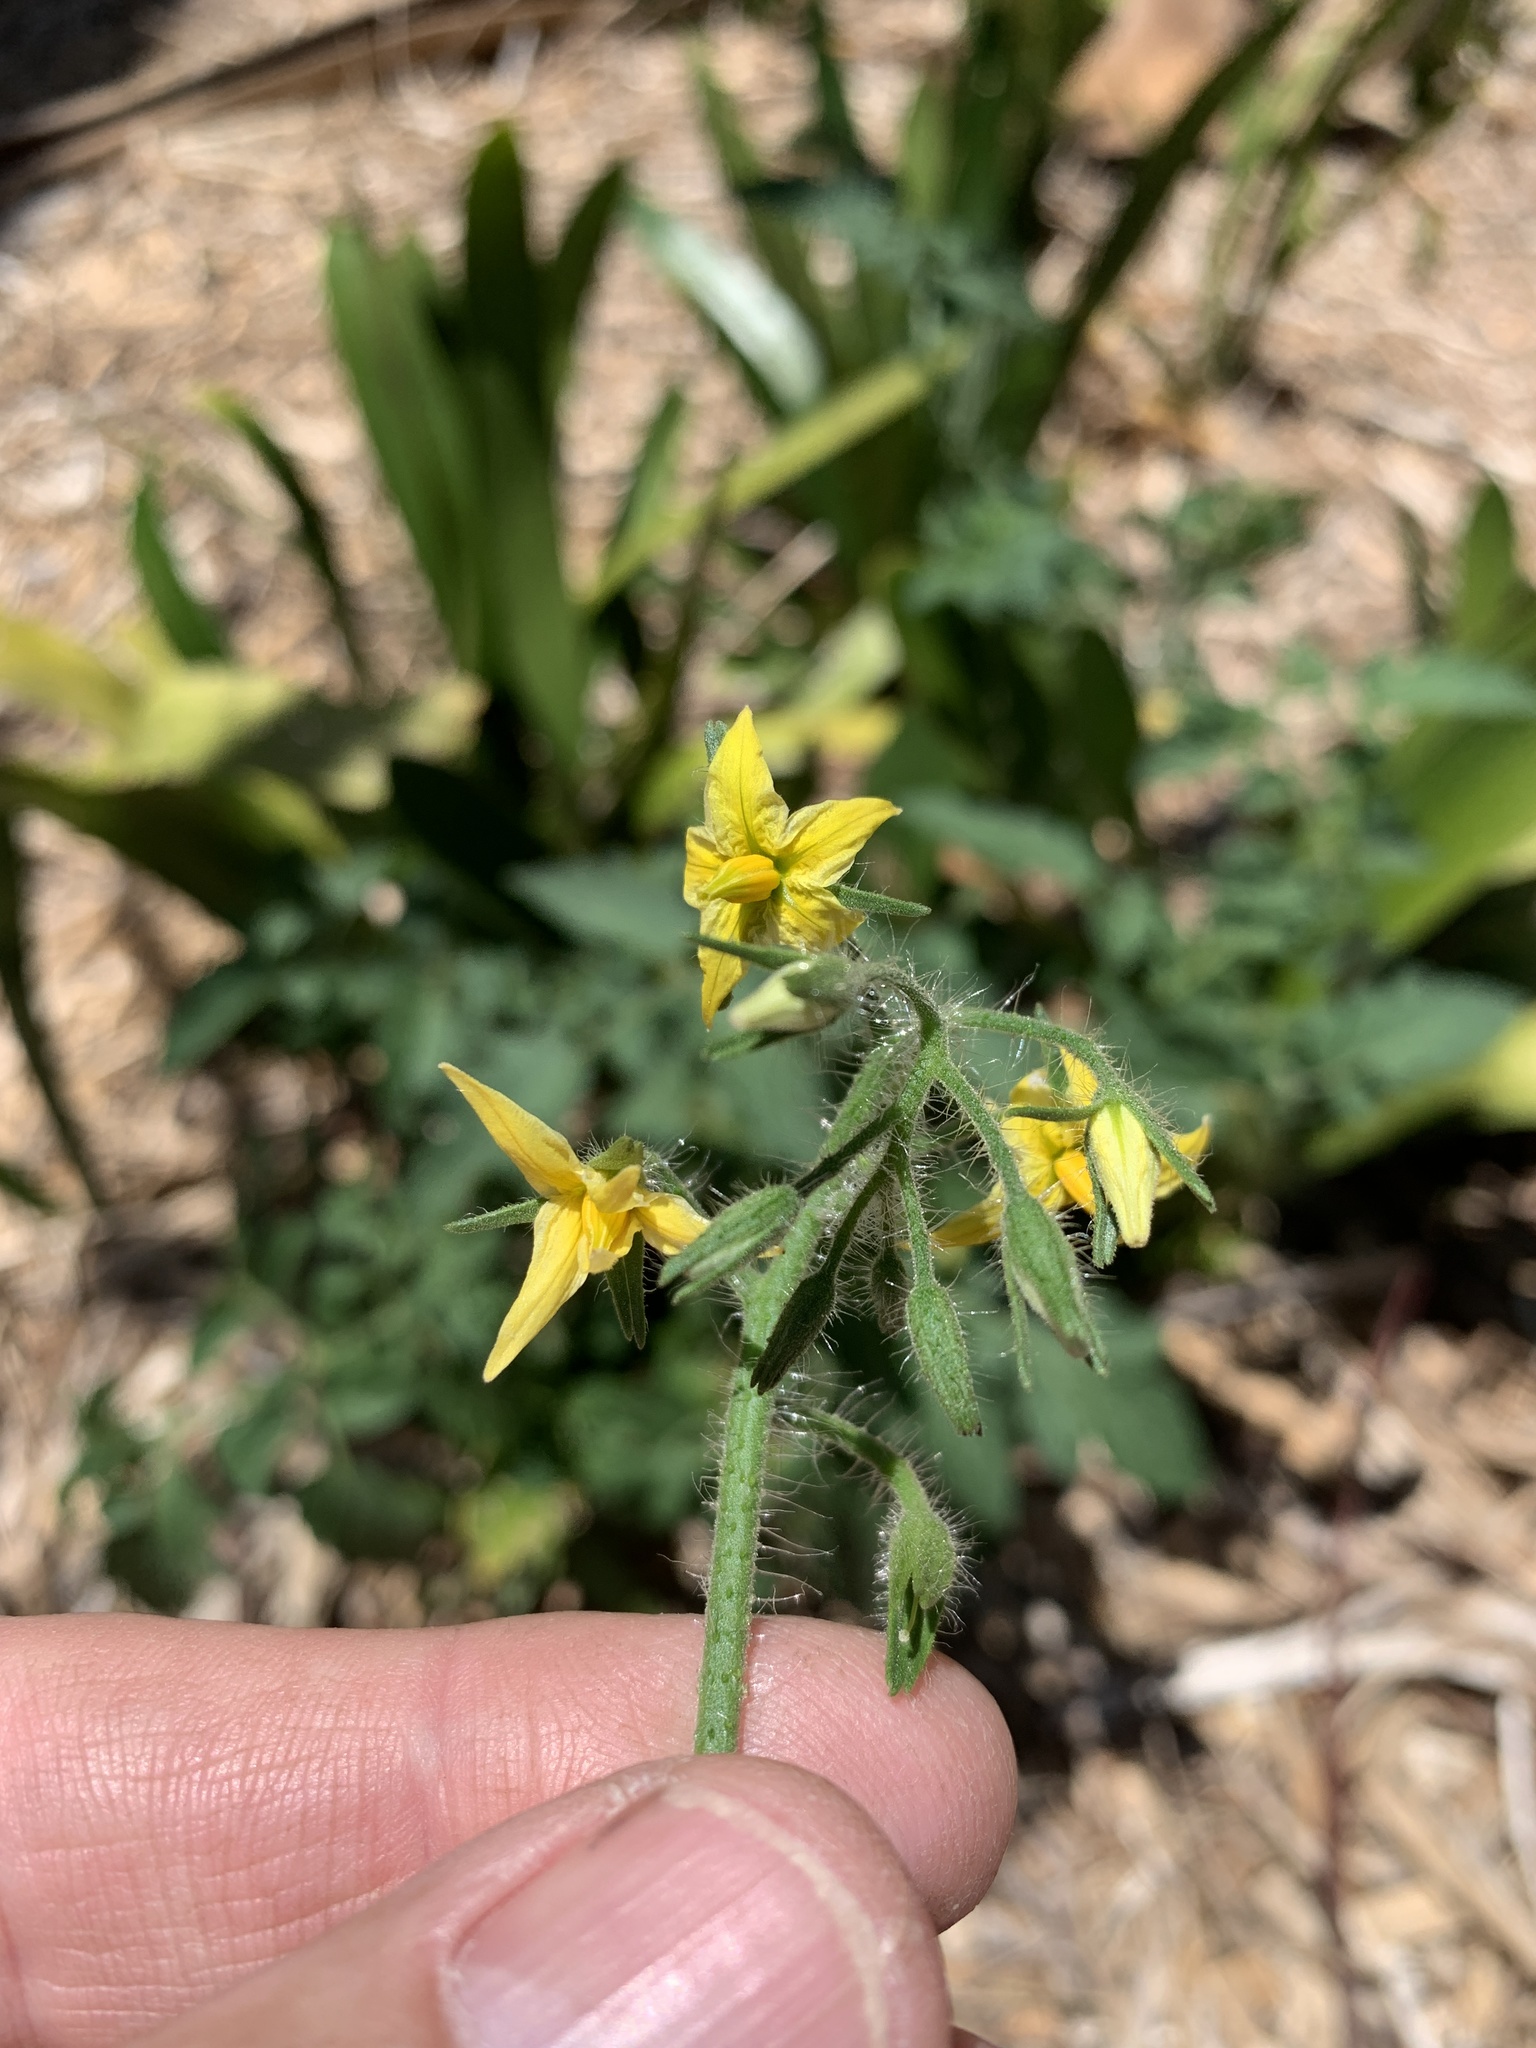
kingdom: Plantae
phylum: Tracheophyta
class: Magnoliopsida
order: Solanales
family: Solanaceae
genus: Solanum
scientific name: Solanum lycopersicum
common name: Garden tomato
